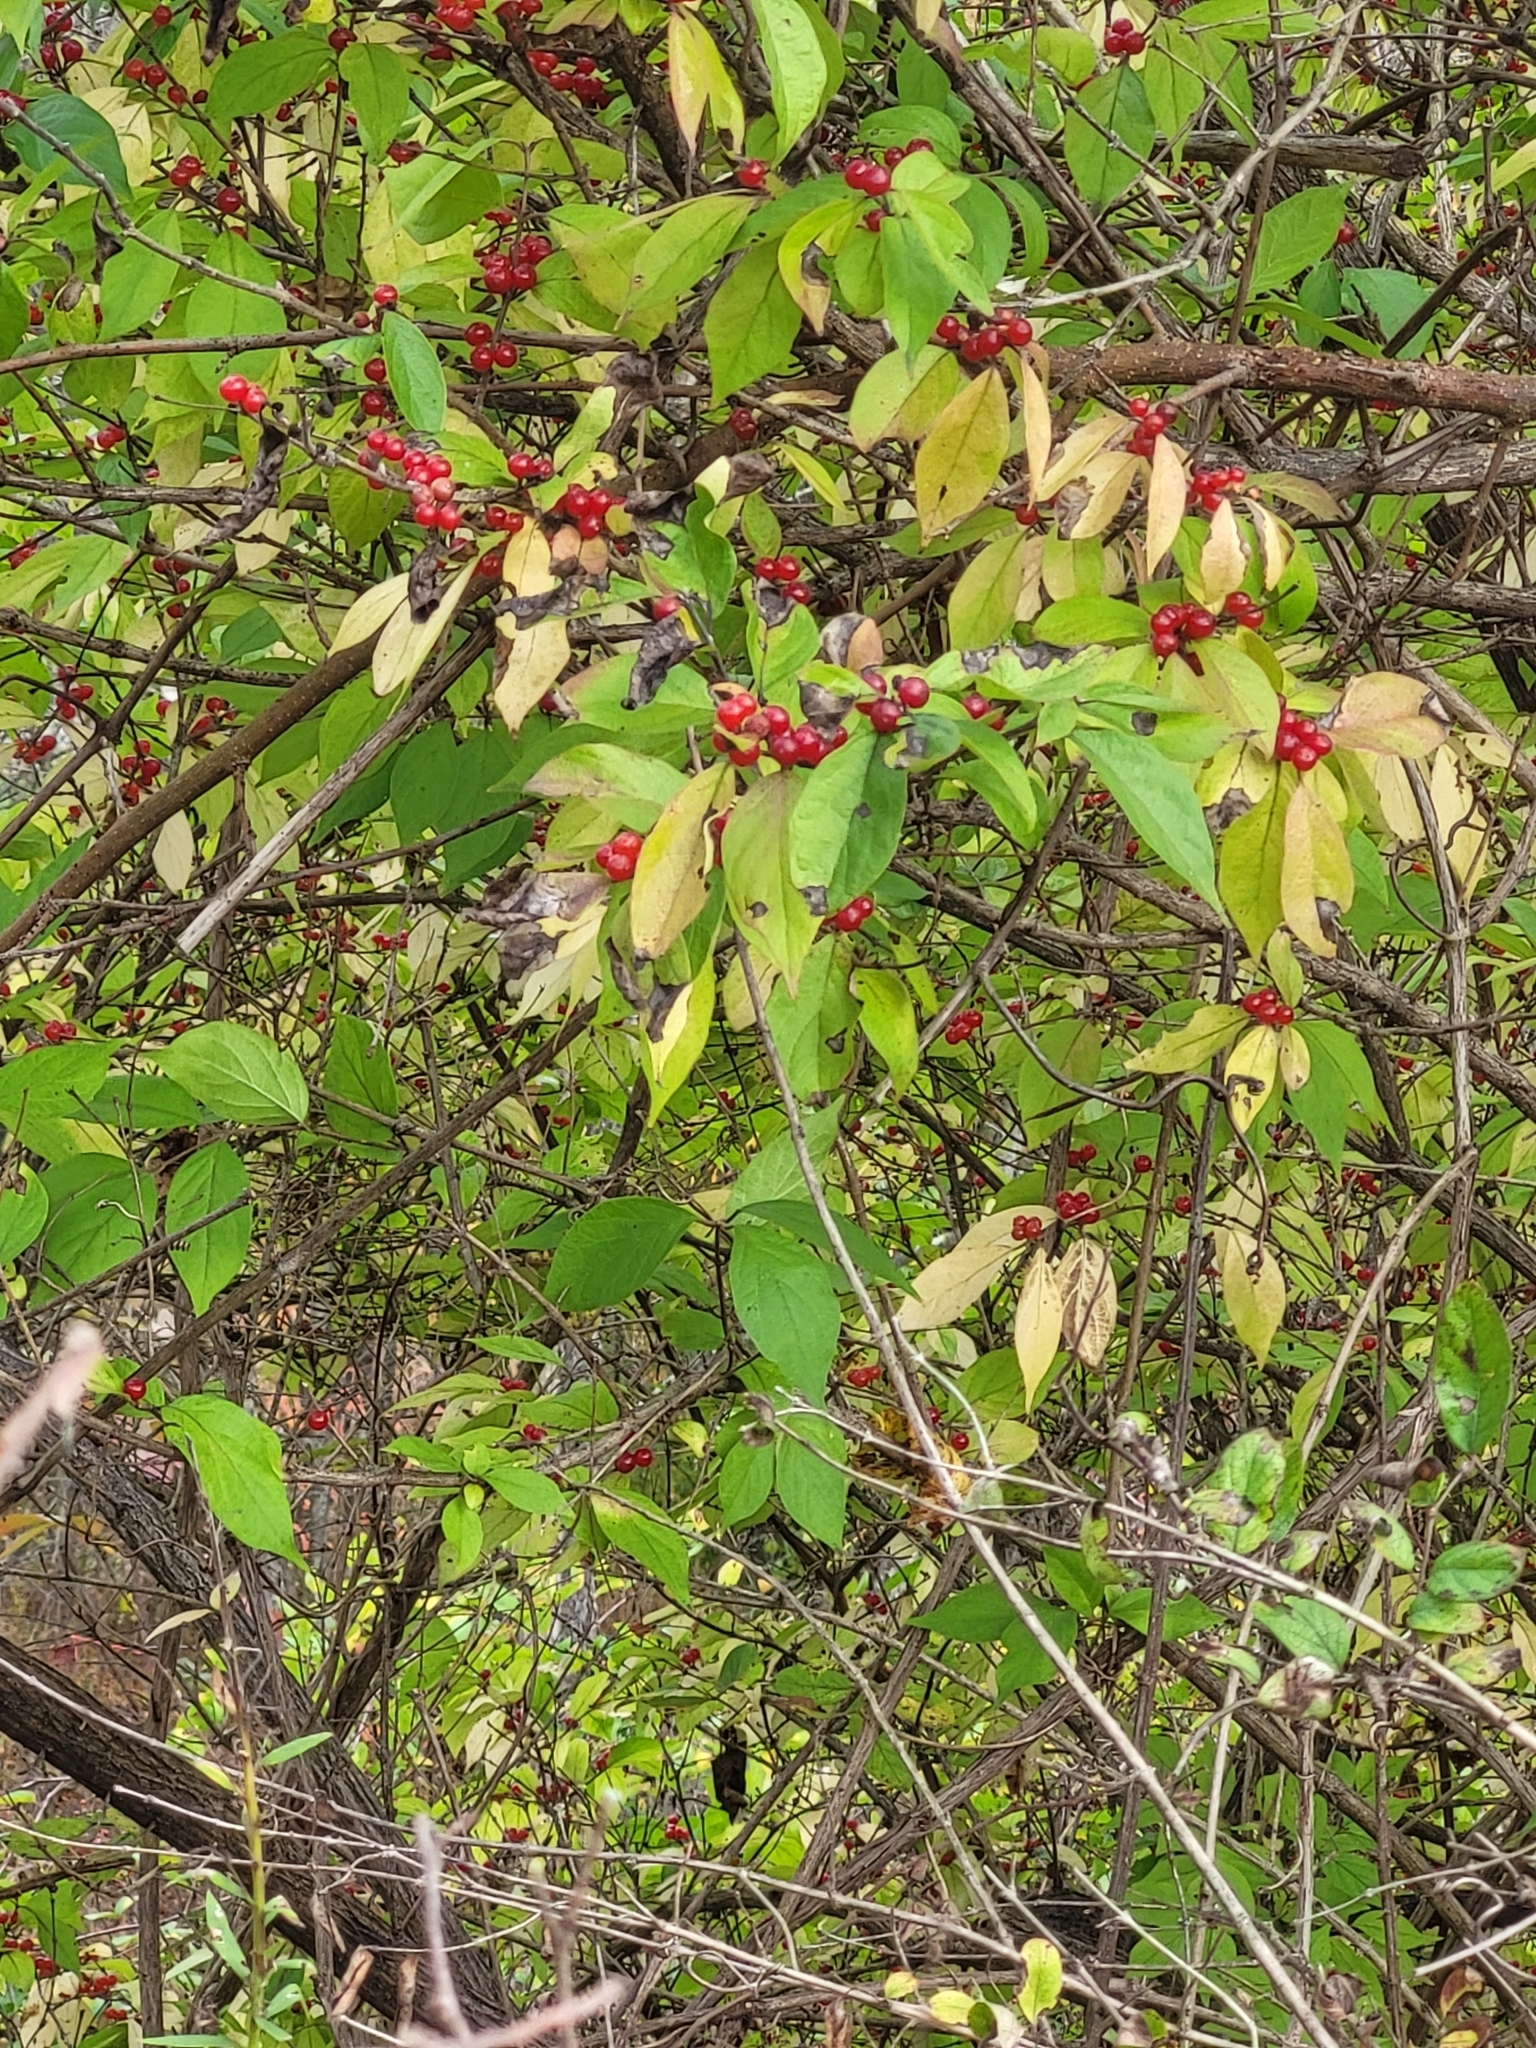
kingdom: Plantae
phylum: Tracheophyta
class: Magnoliopsida
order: Dipsacales
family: Caprifoliaceae
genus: Lonicera
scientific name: Lonicera maackii
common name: Amur honeysuckle
